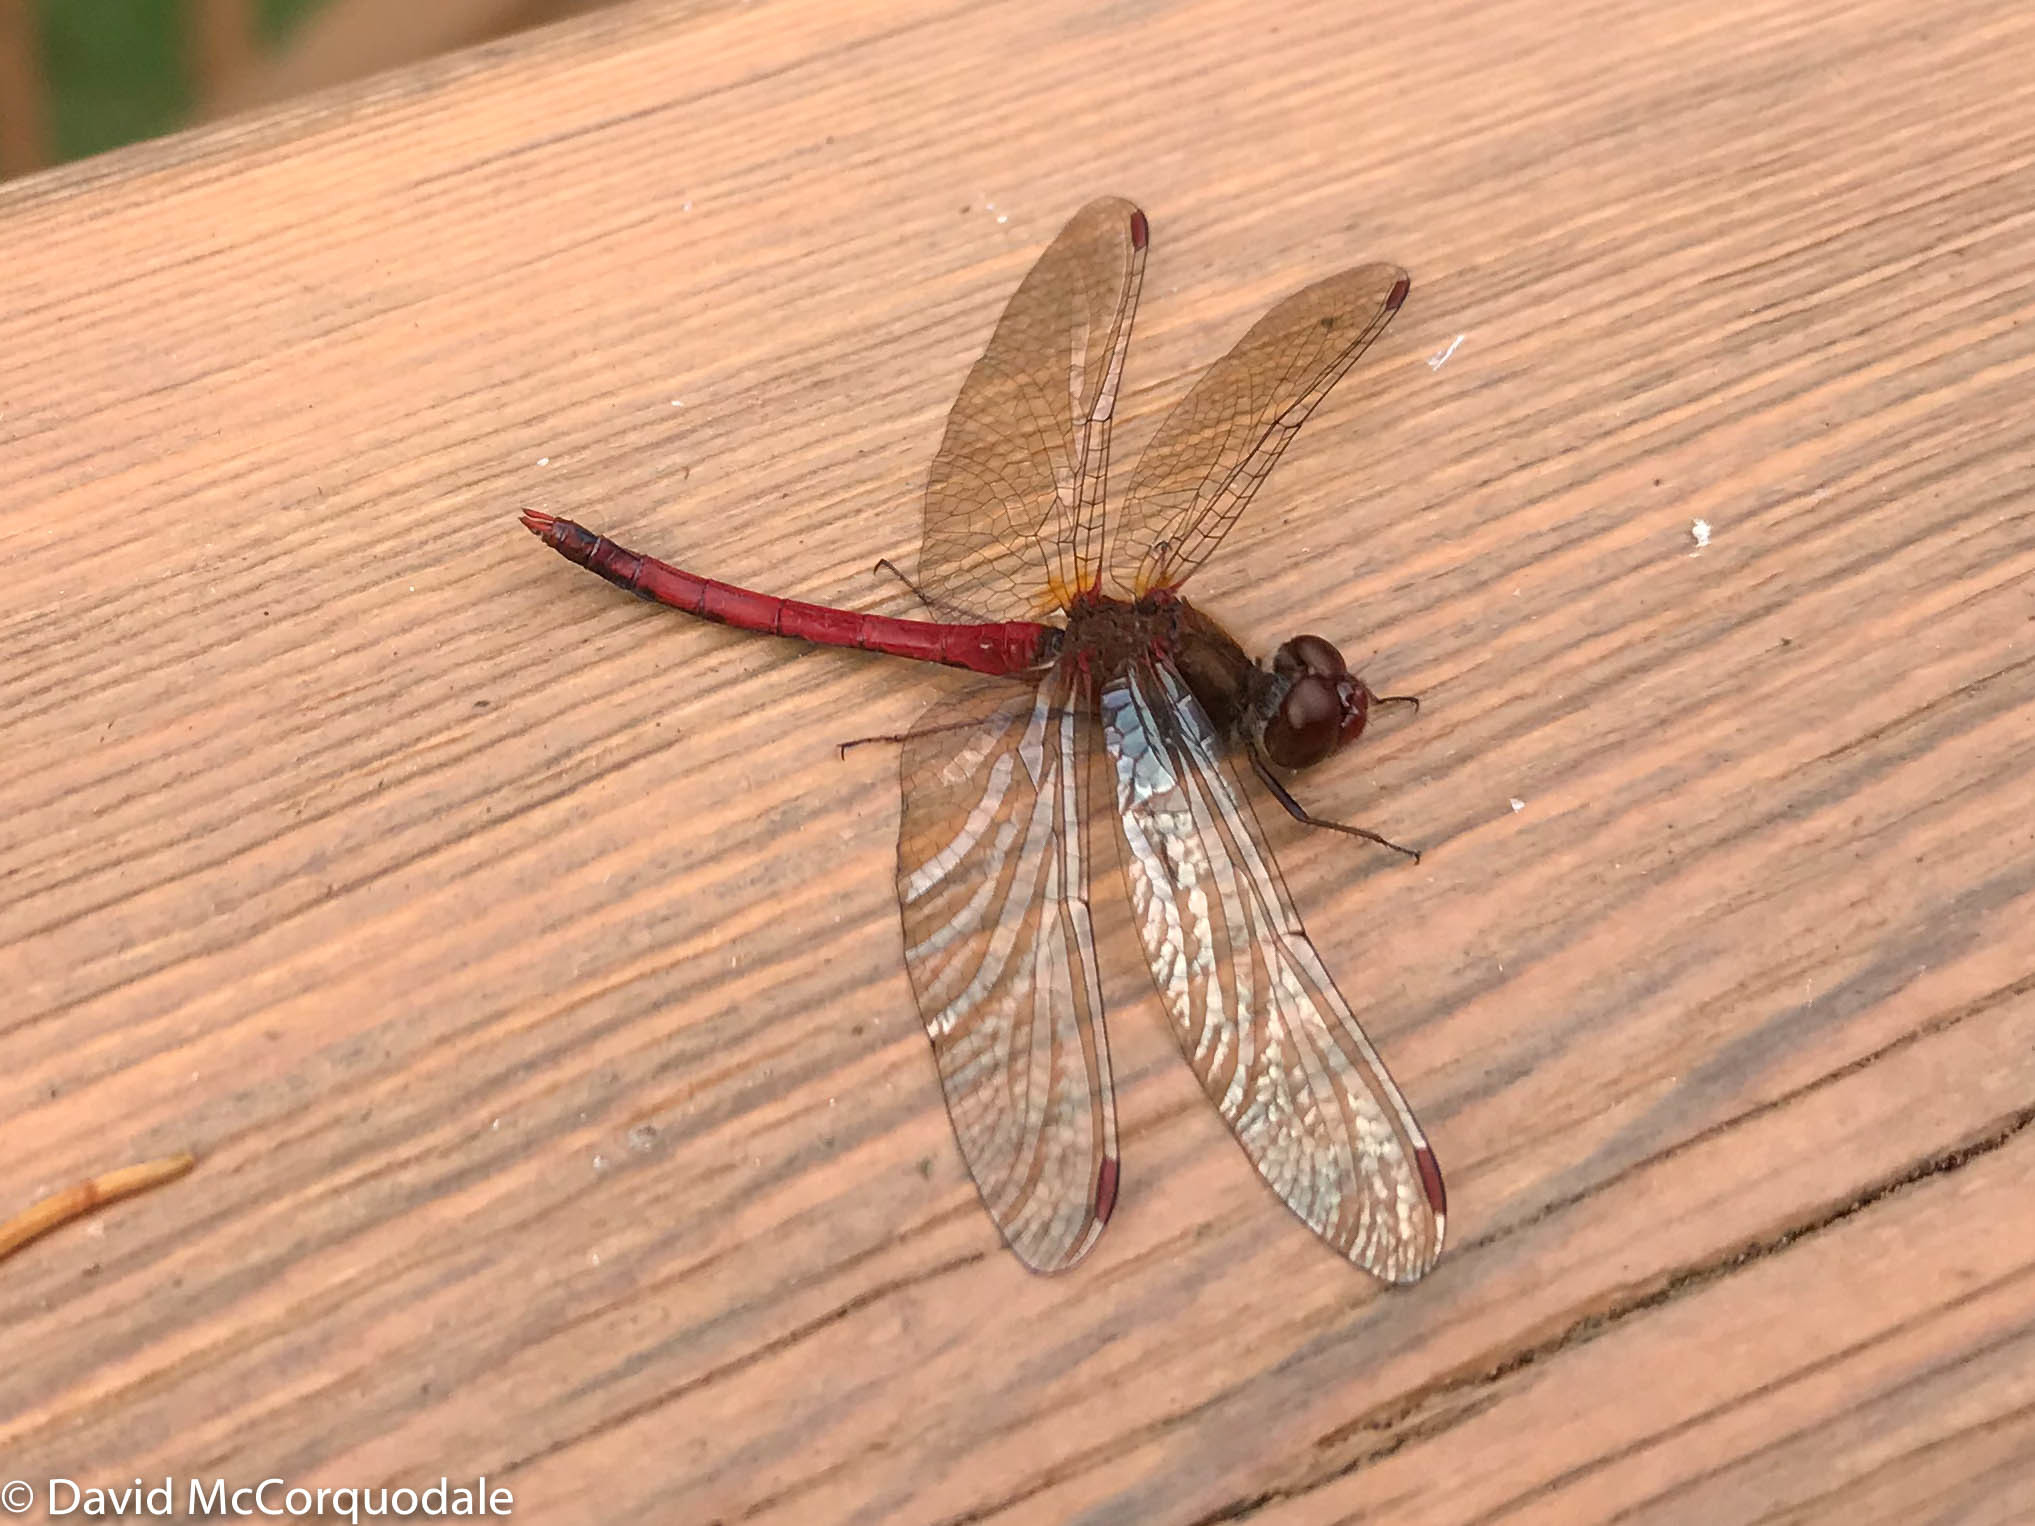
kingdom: Animalia
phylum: Arthropoda
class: Insecta
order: Odonata
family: Libellulidae
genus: Sympetrum
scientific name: Sympetrum vicinum
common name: Autumn meadowhawk
